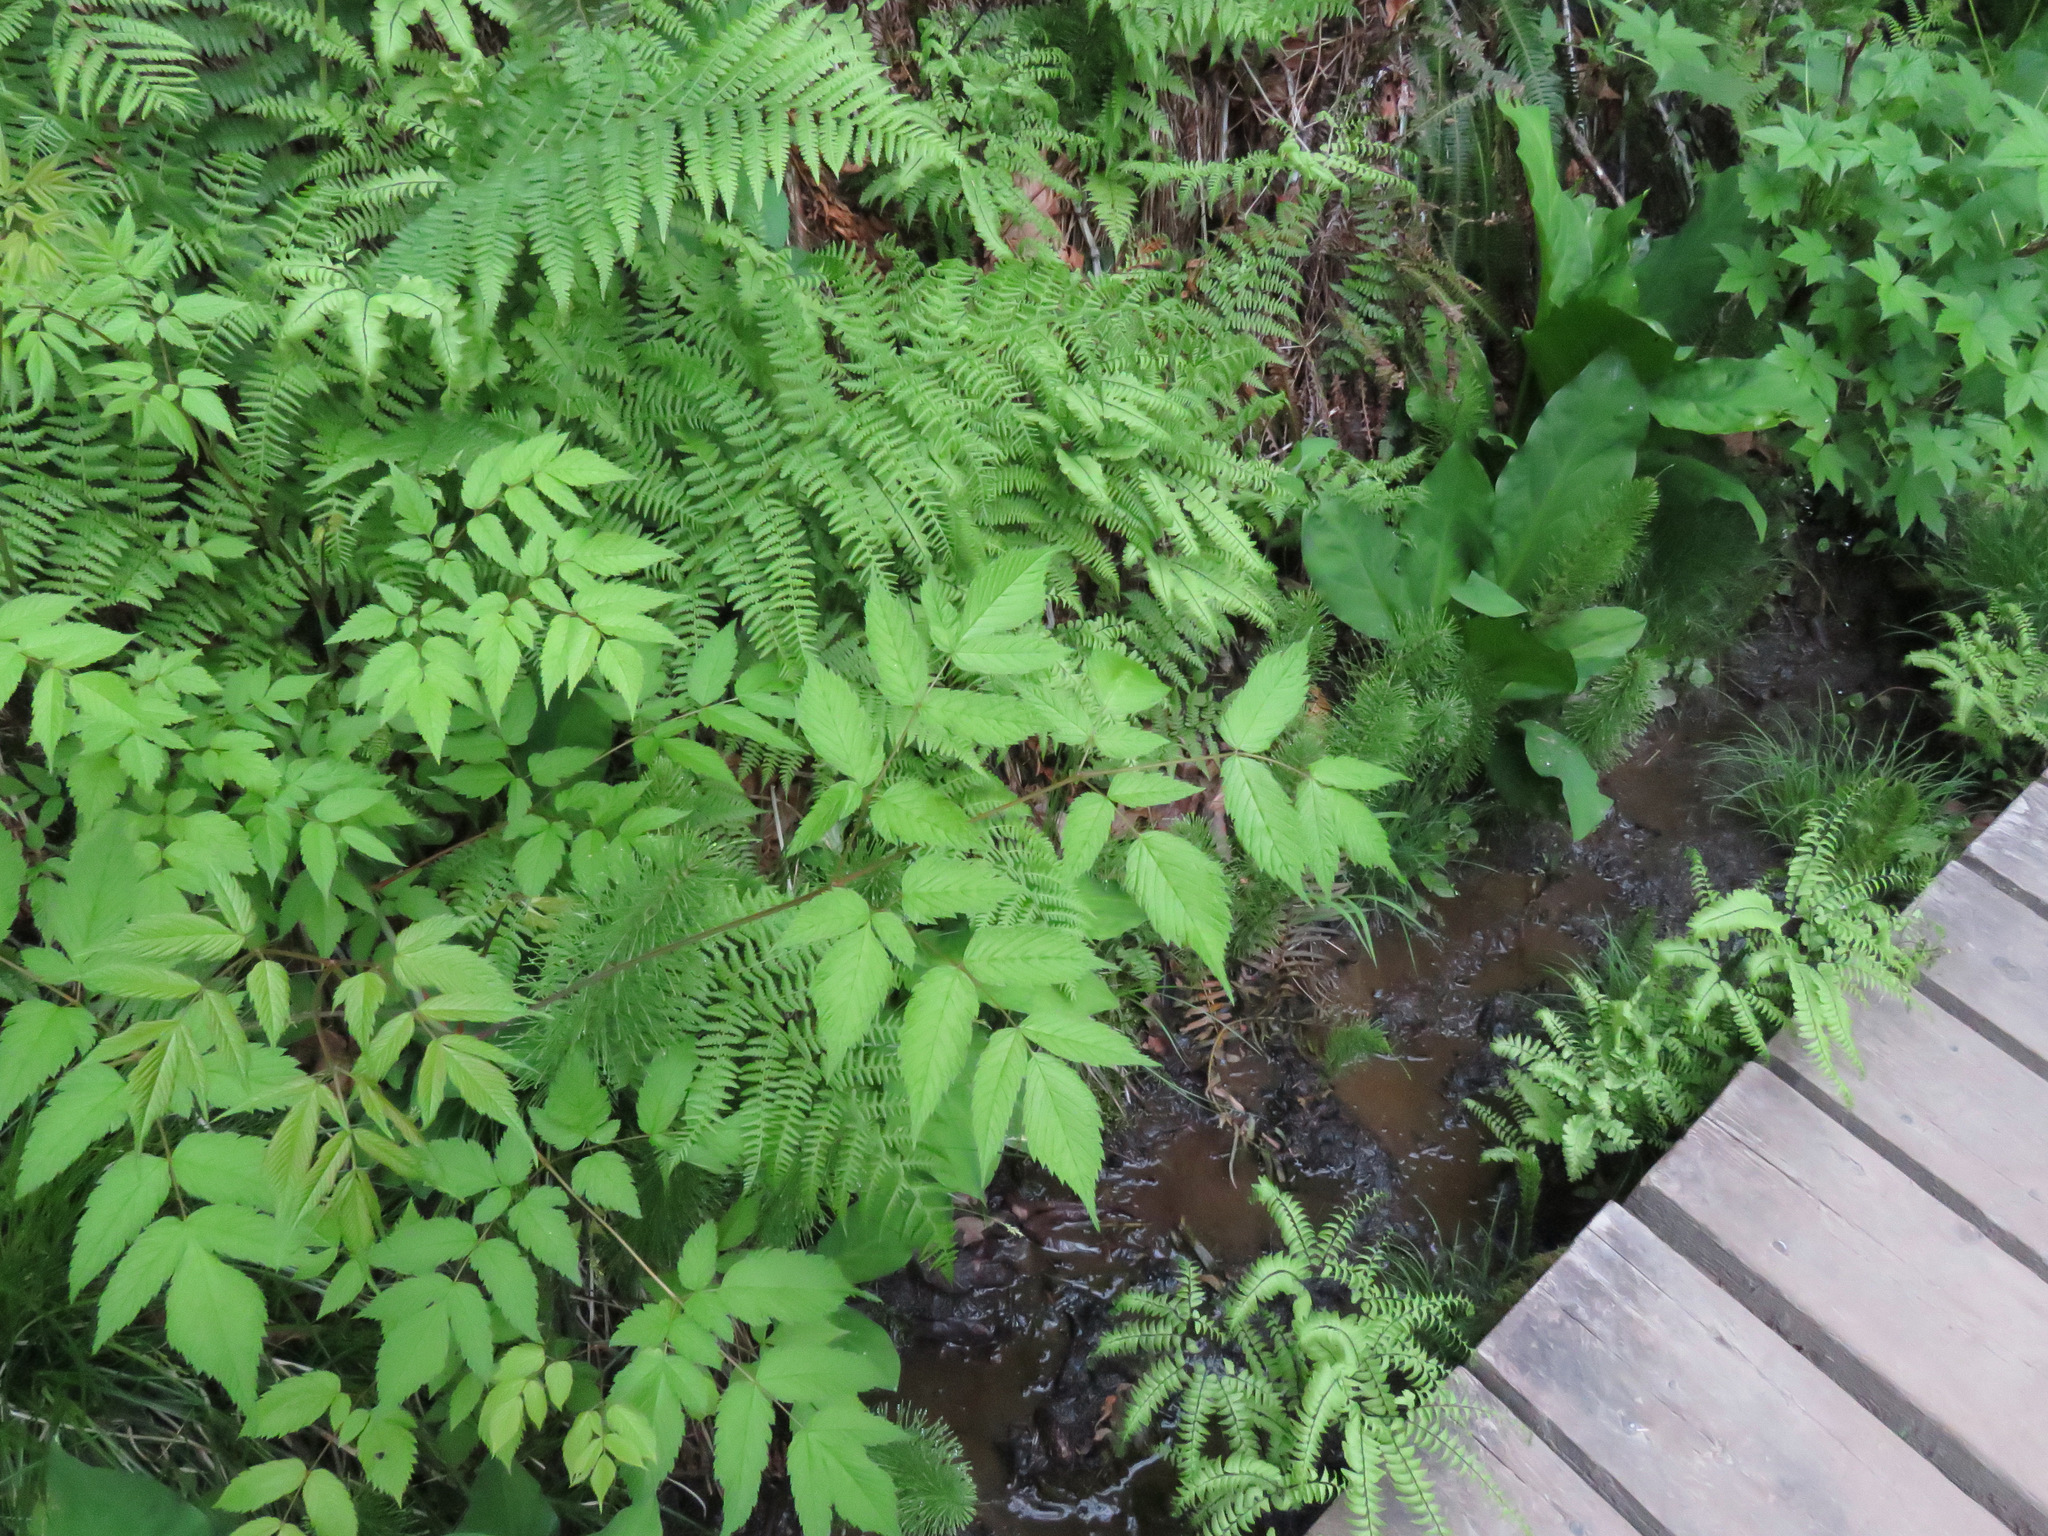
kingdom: Plantae
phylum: Tracheophyta
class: Magnoliopsida
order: Rosales
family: Rosaceae
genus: Aruncus
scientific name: Aruncus dioicus
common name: Buck's-beard
